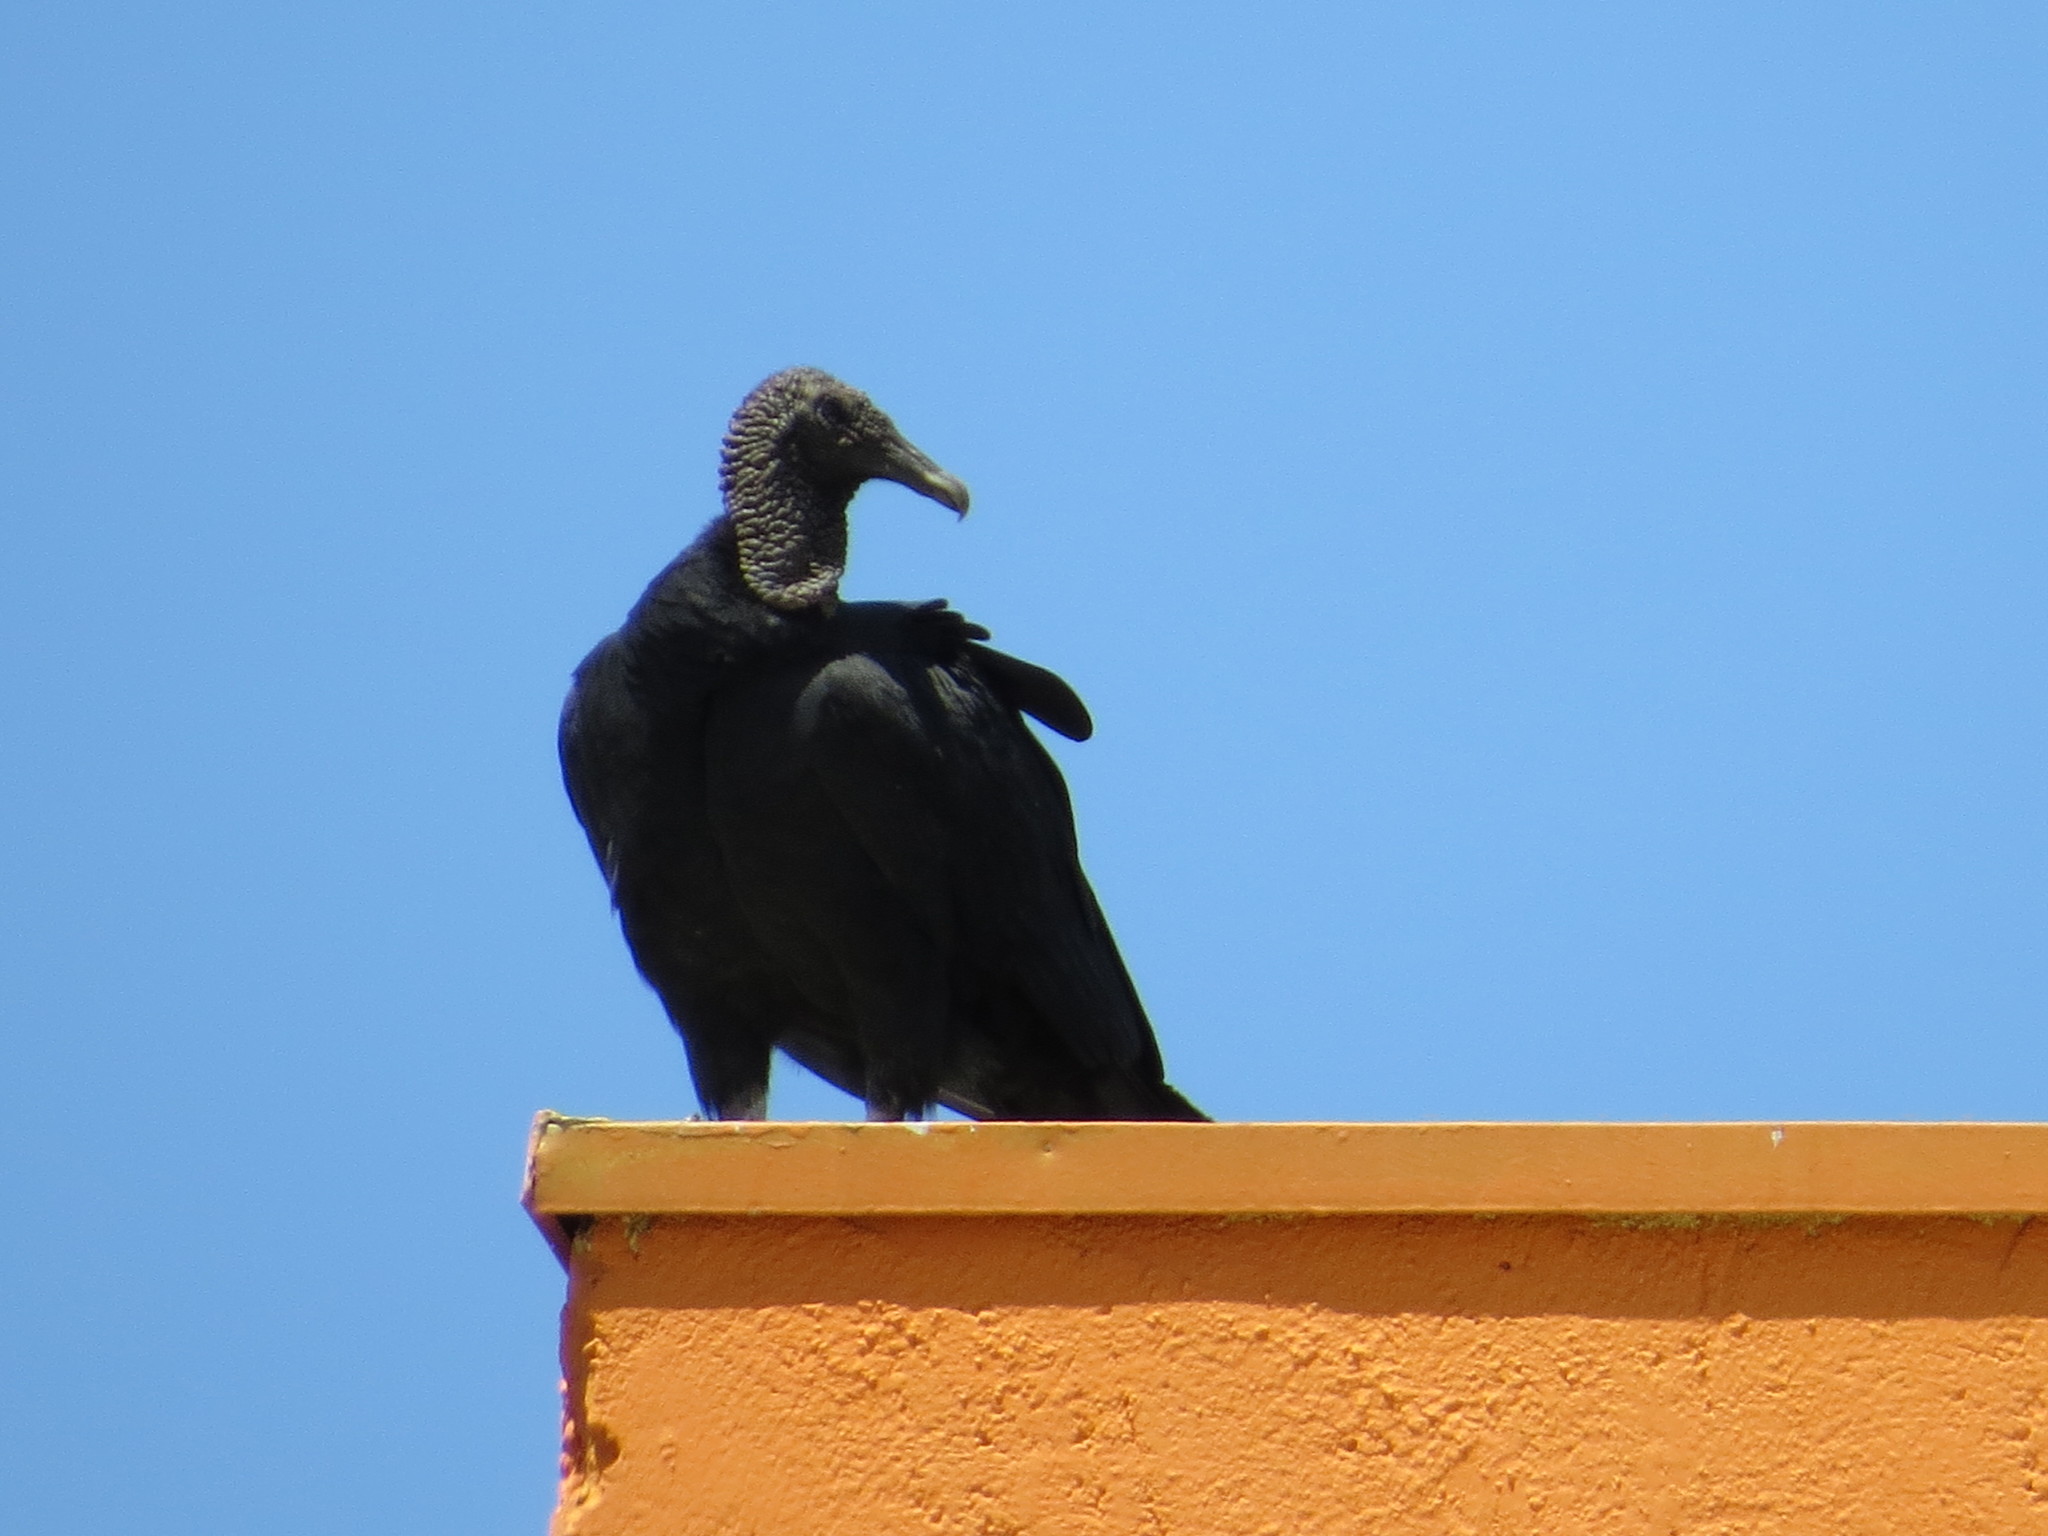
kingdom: Animalia
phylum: Chordata
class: Aves
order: Accipitriformes
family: Cathartidae
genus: Coragyps
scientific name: Coragyps atratus
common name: Black vulture
